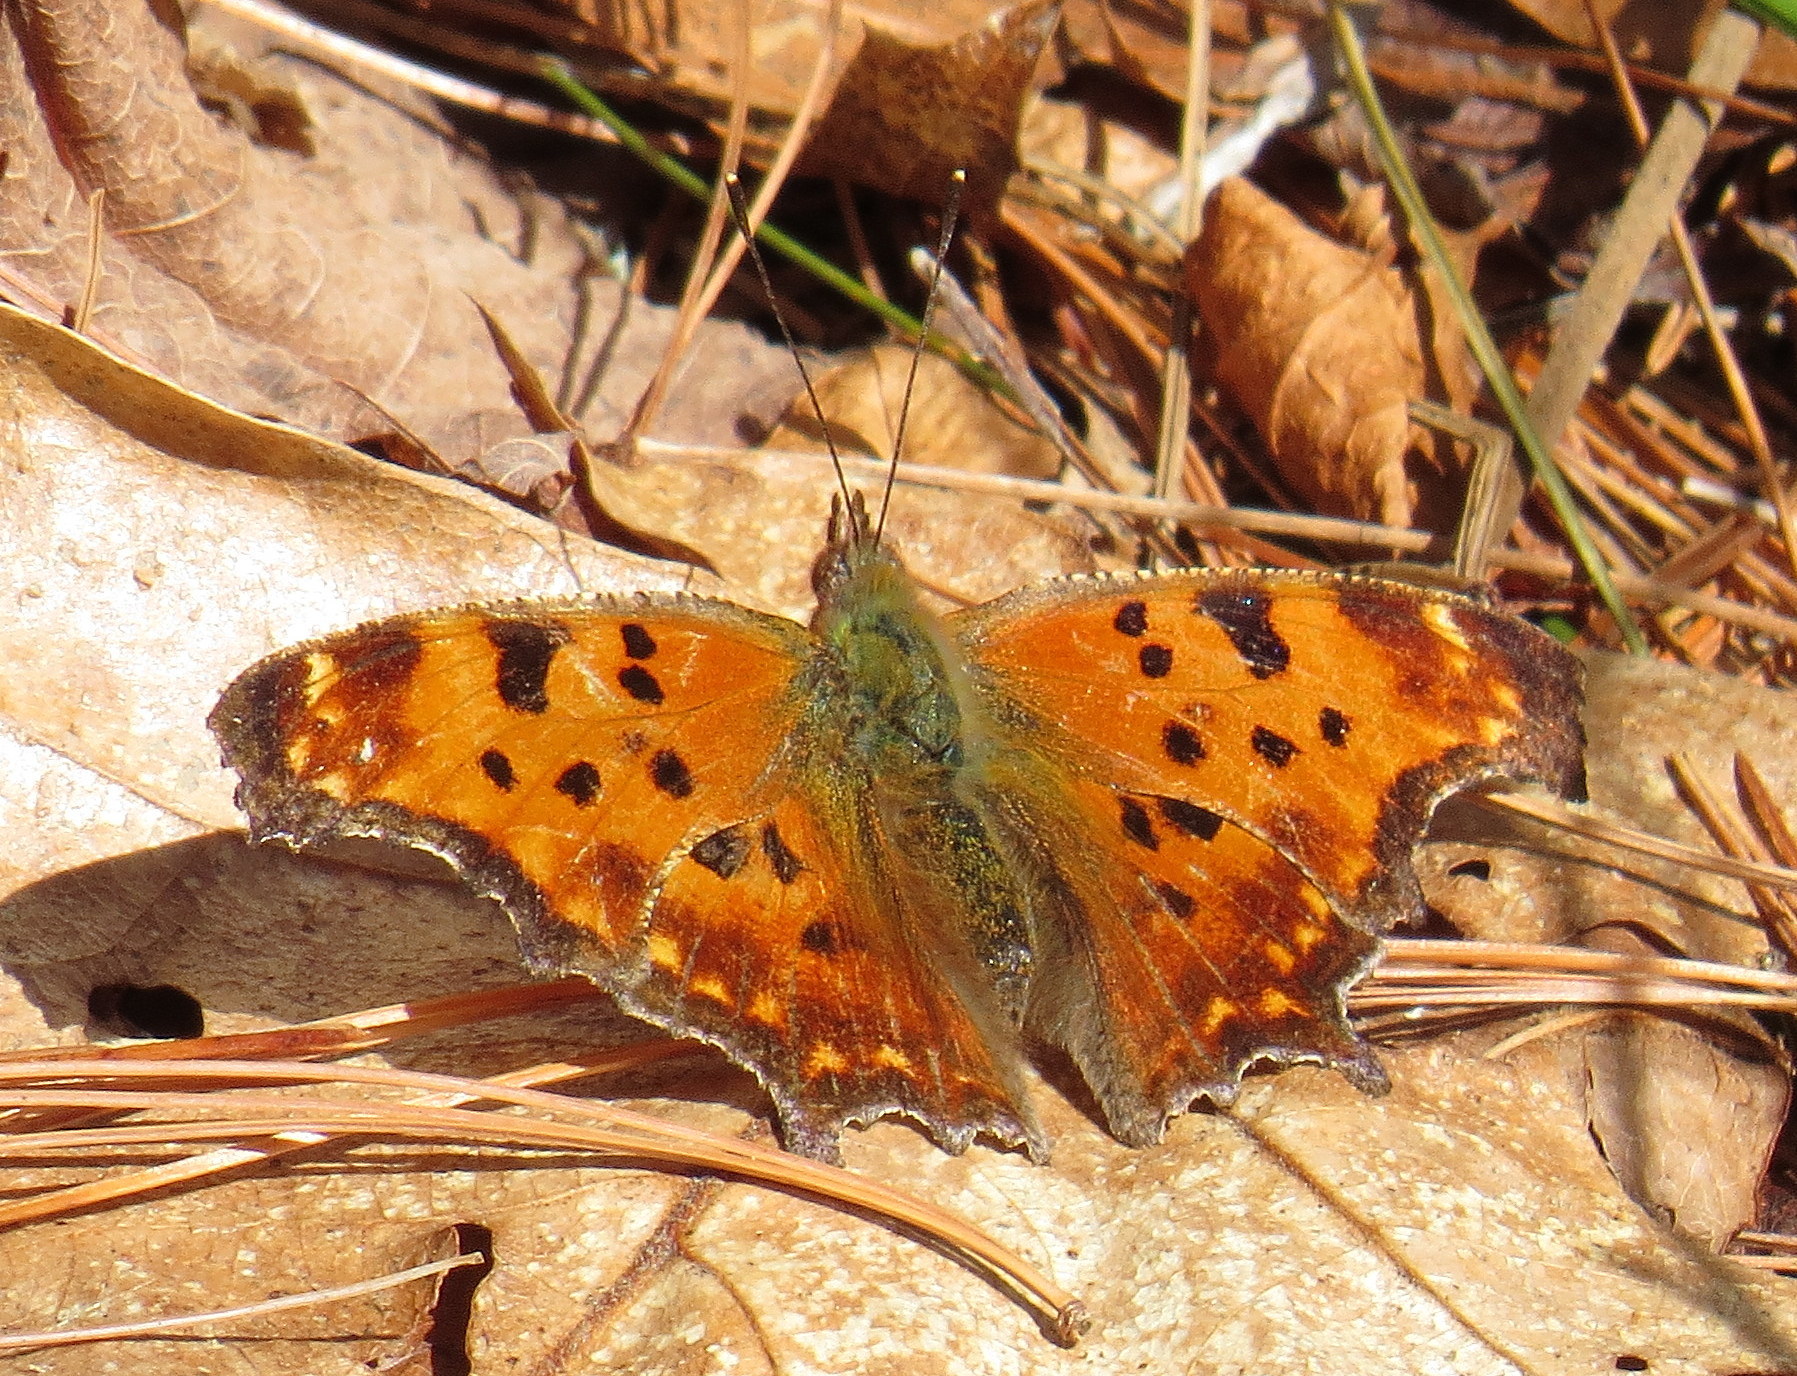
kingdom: Animalia
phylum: Arthropoda
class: Insecta
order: Lepidoptera
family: Nymphalidae
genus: Polygonia
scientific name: Polygonia comma
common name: Eastern comma
